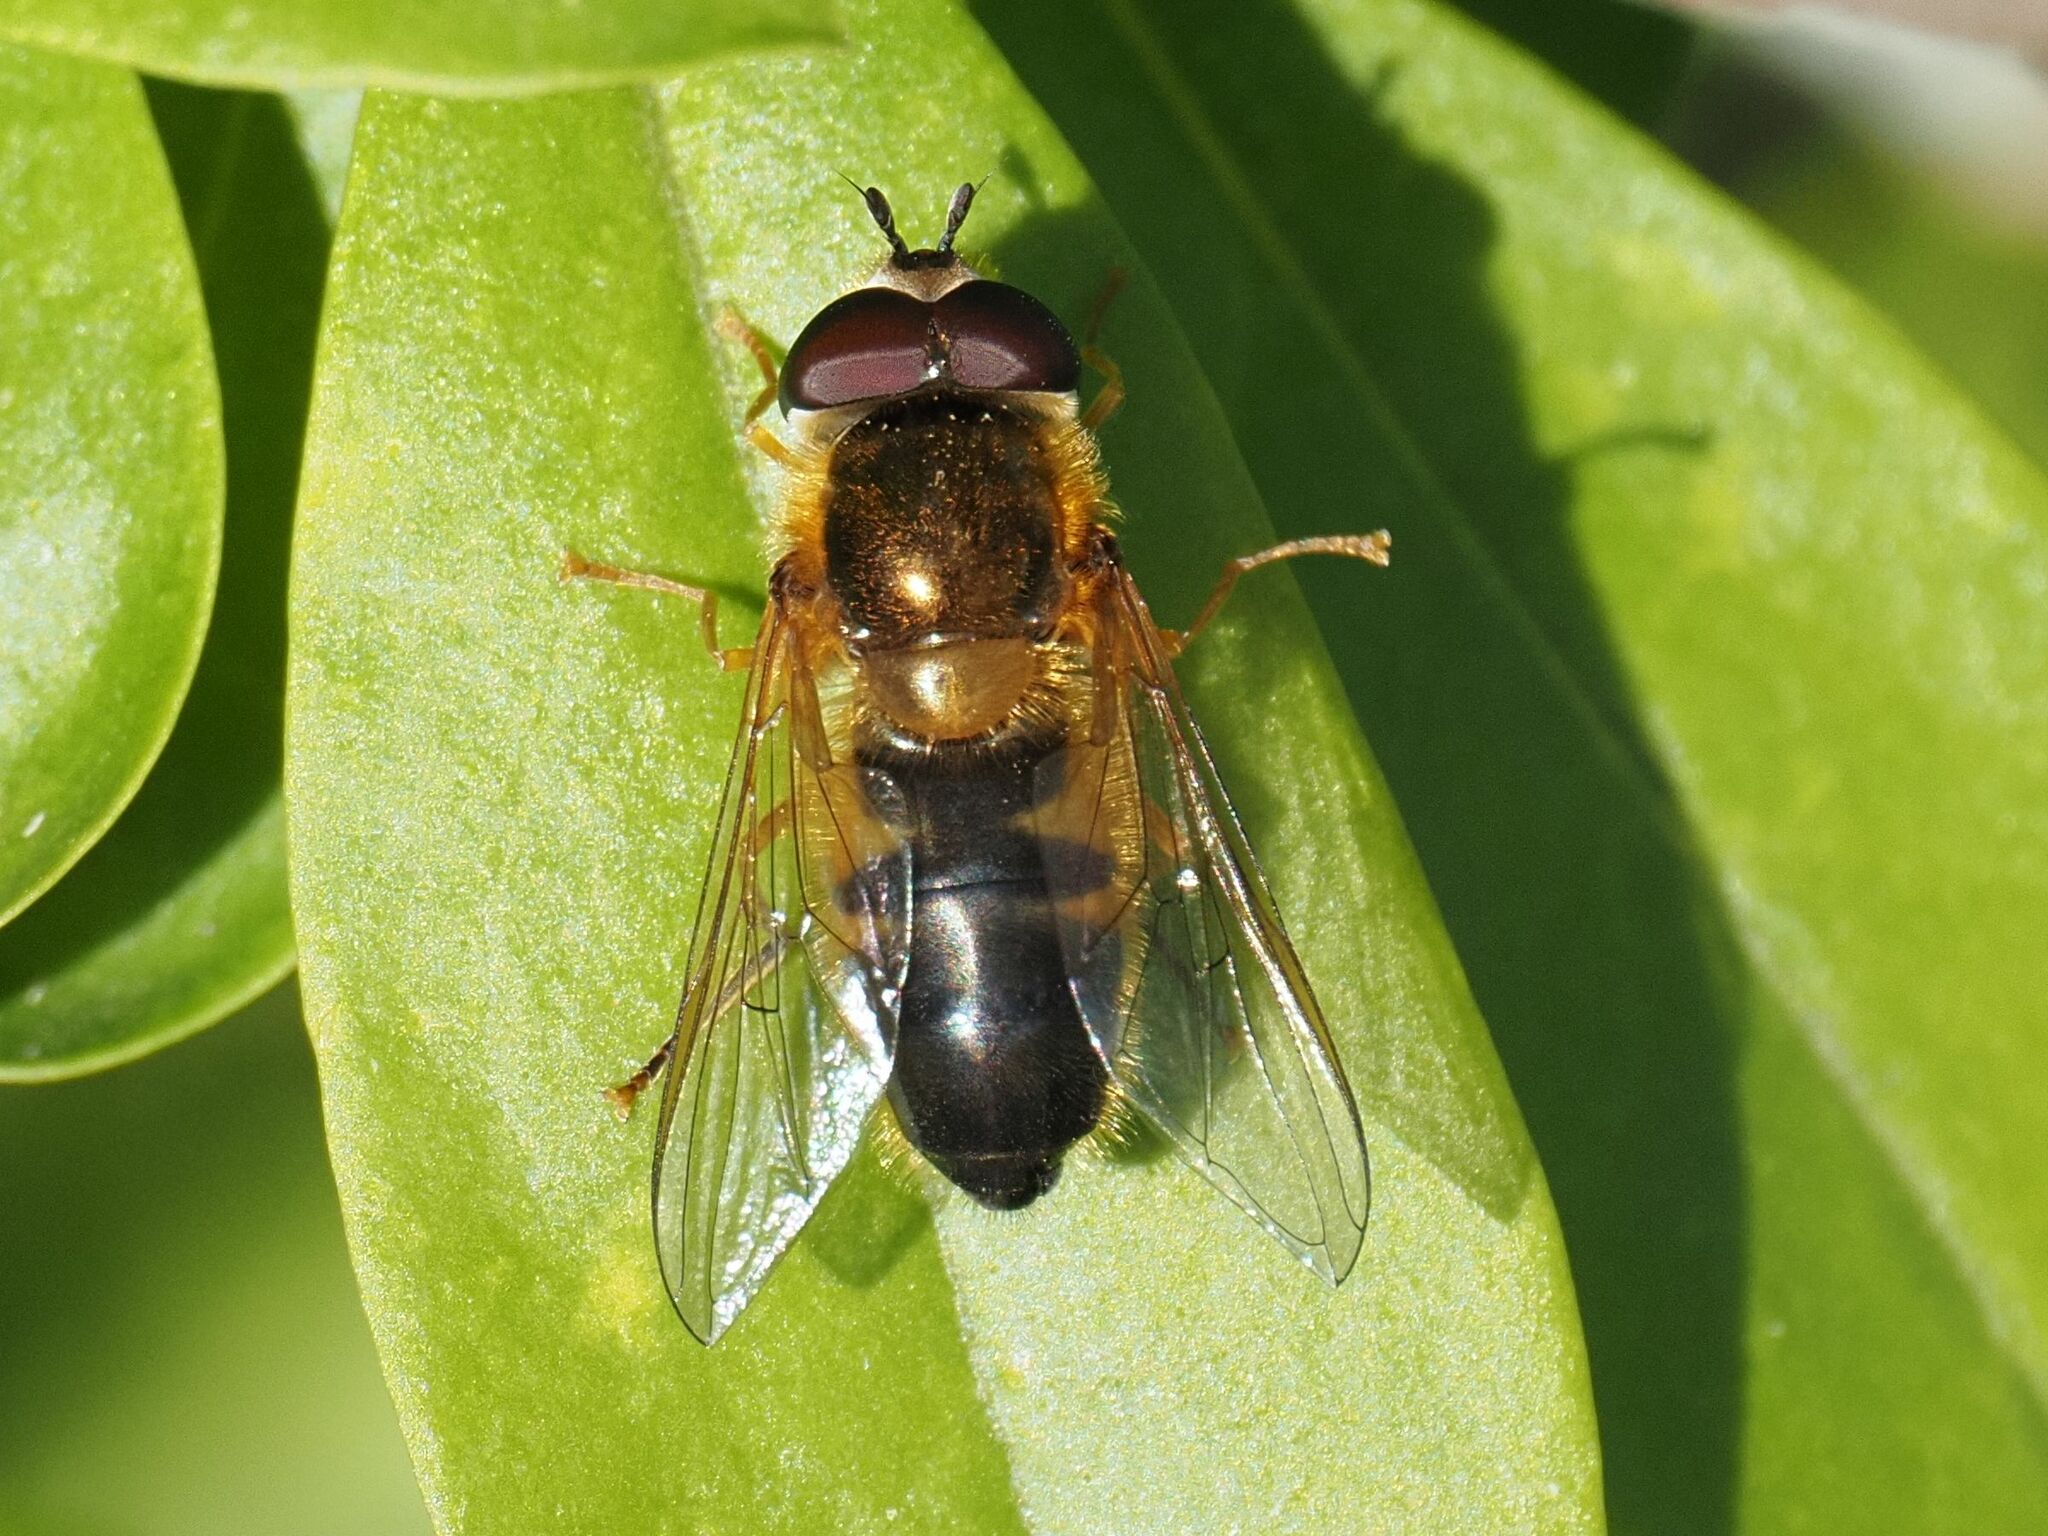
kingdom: Animalia
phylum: Arthropoda
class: Insecta
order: Diptera
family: Syrphidae
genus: Epistrophe
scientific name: Epistrophe eligans
